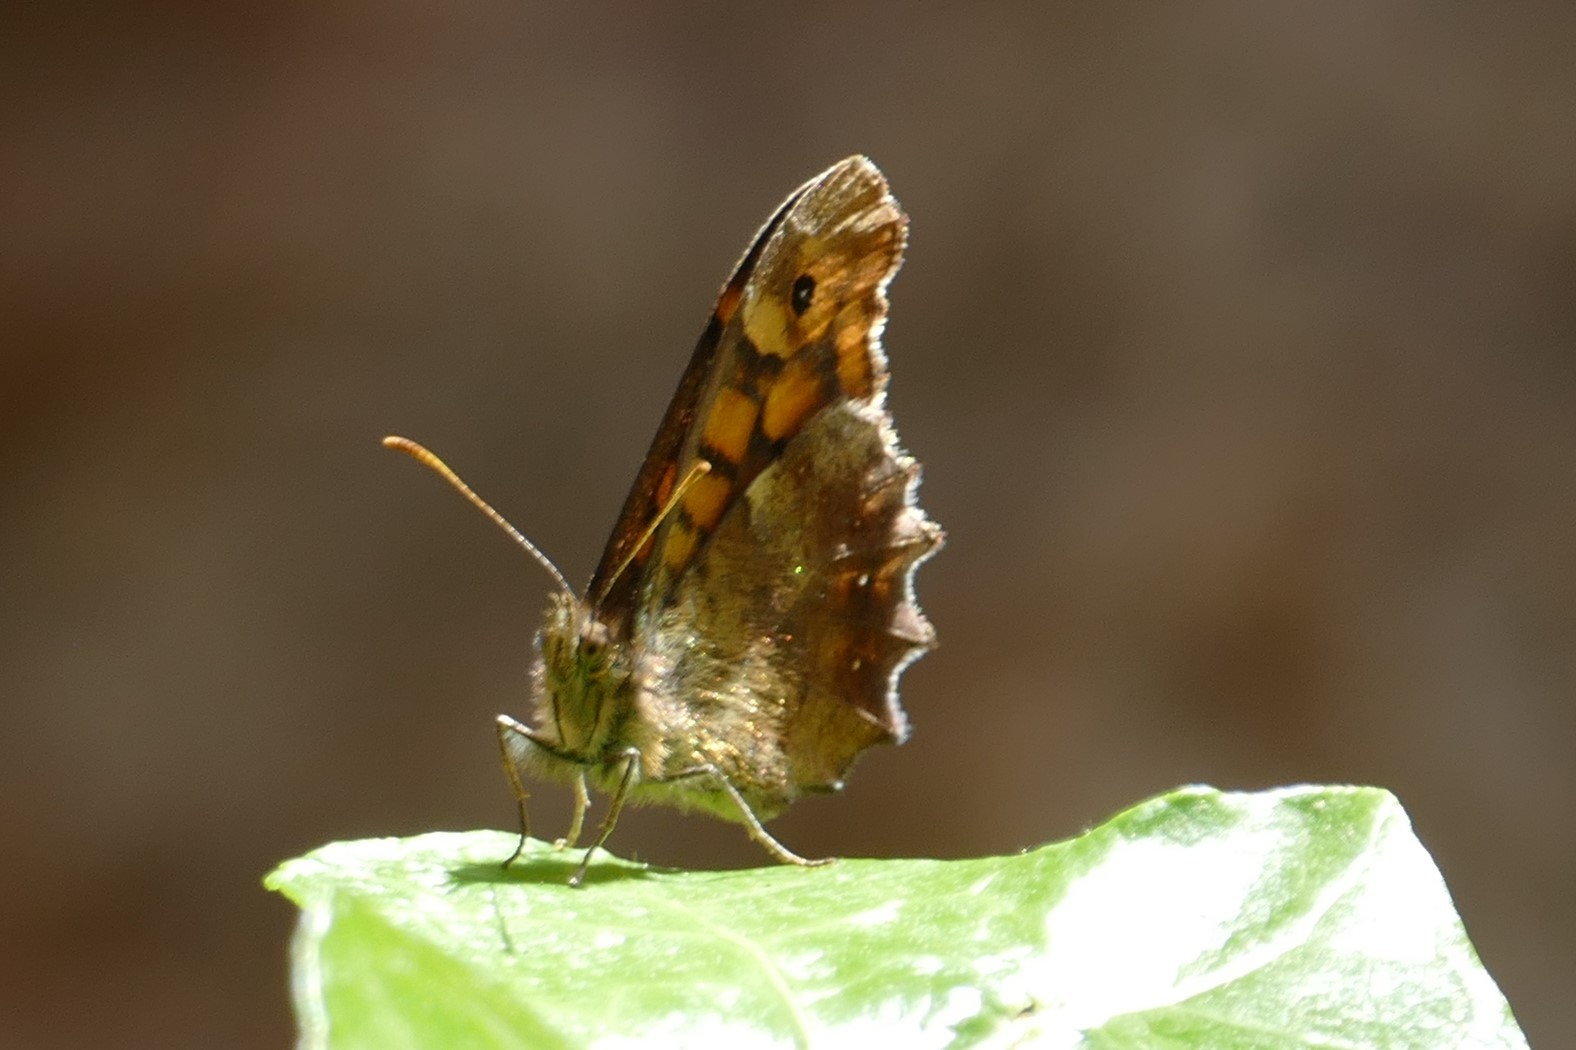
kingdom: Animalia
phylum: Arthropoda
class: Insecta
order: Lepidoptera
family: Nymphalidae
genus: Pararge
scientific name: Pararge aegeria
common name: Speckled wood
